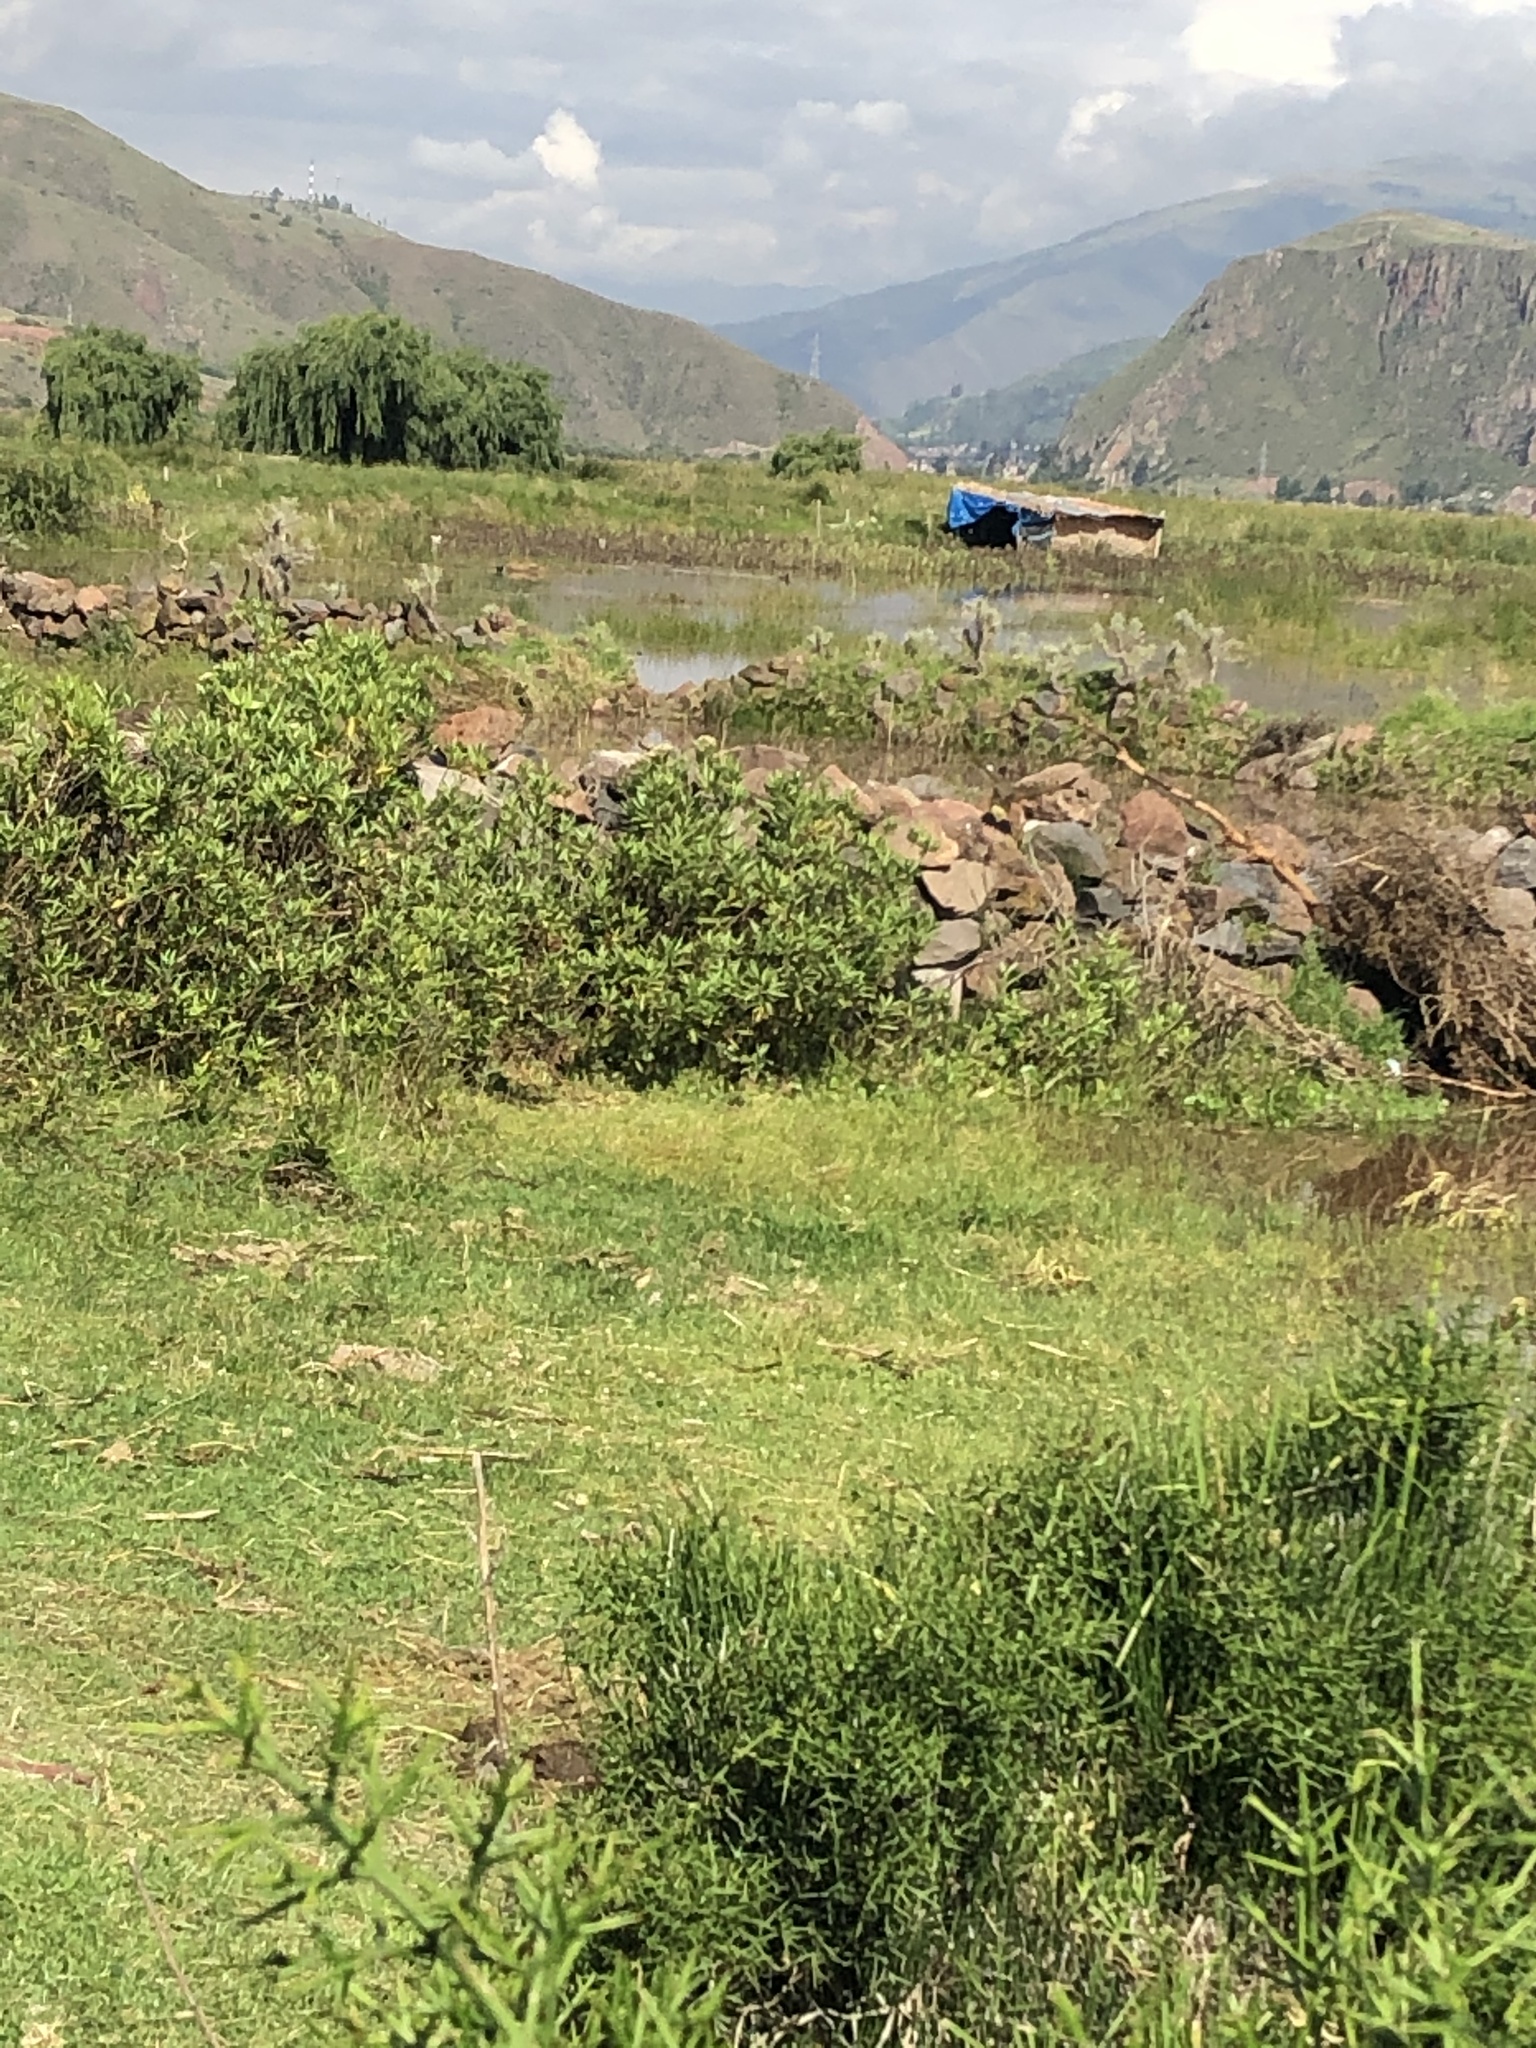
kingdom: Animalia
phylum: Chordata
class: Aves
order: Piciformes
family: Picidae
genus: Colaptes
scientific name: Colaptes rupicola
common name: Andean flicker
